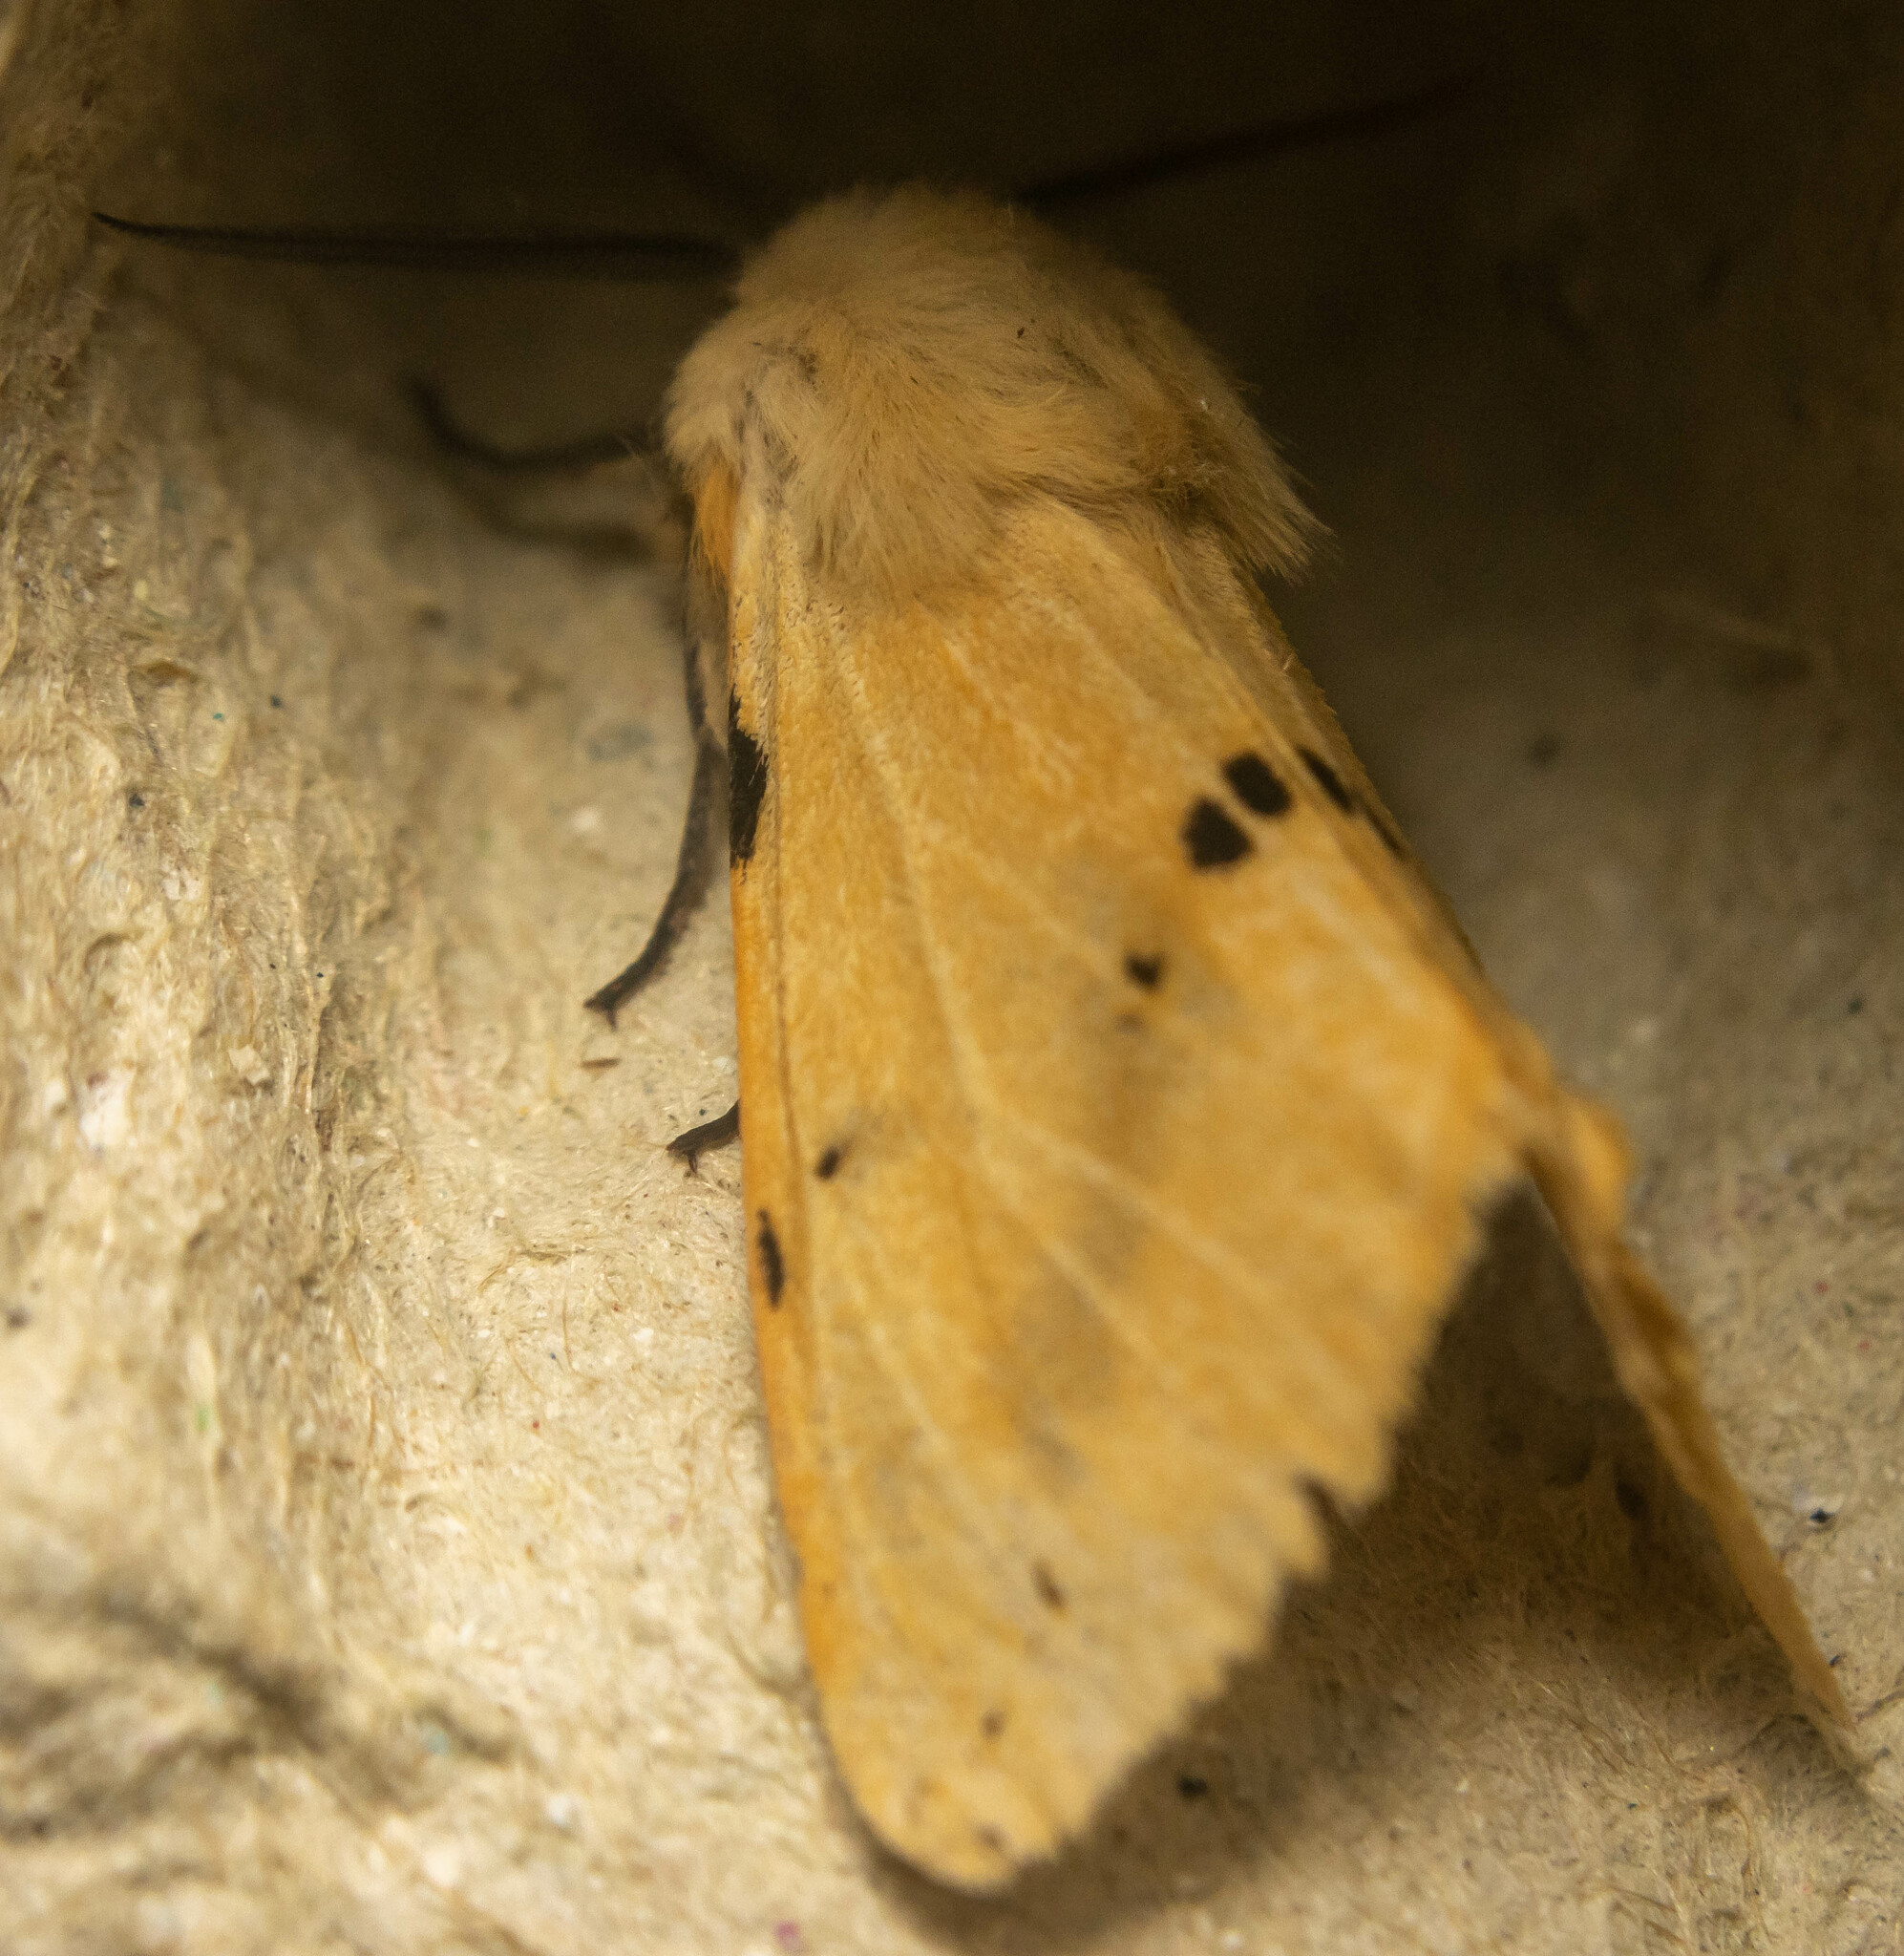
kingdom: Animalia
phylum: Arthropoda
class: Insecta
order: Lepidoptera
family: Erebidae
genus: Spilarctia
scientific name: Spilarctia lutea
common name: Buff ermine
